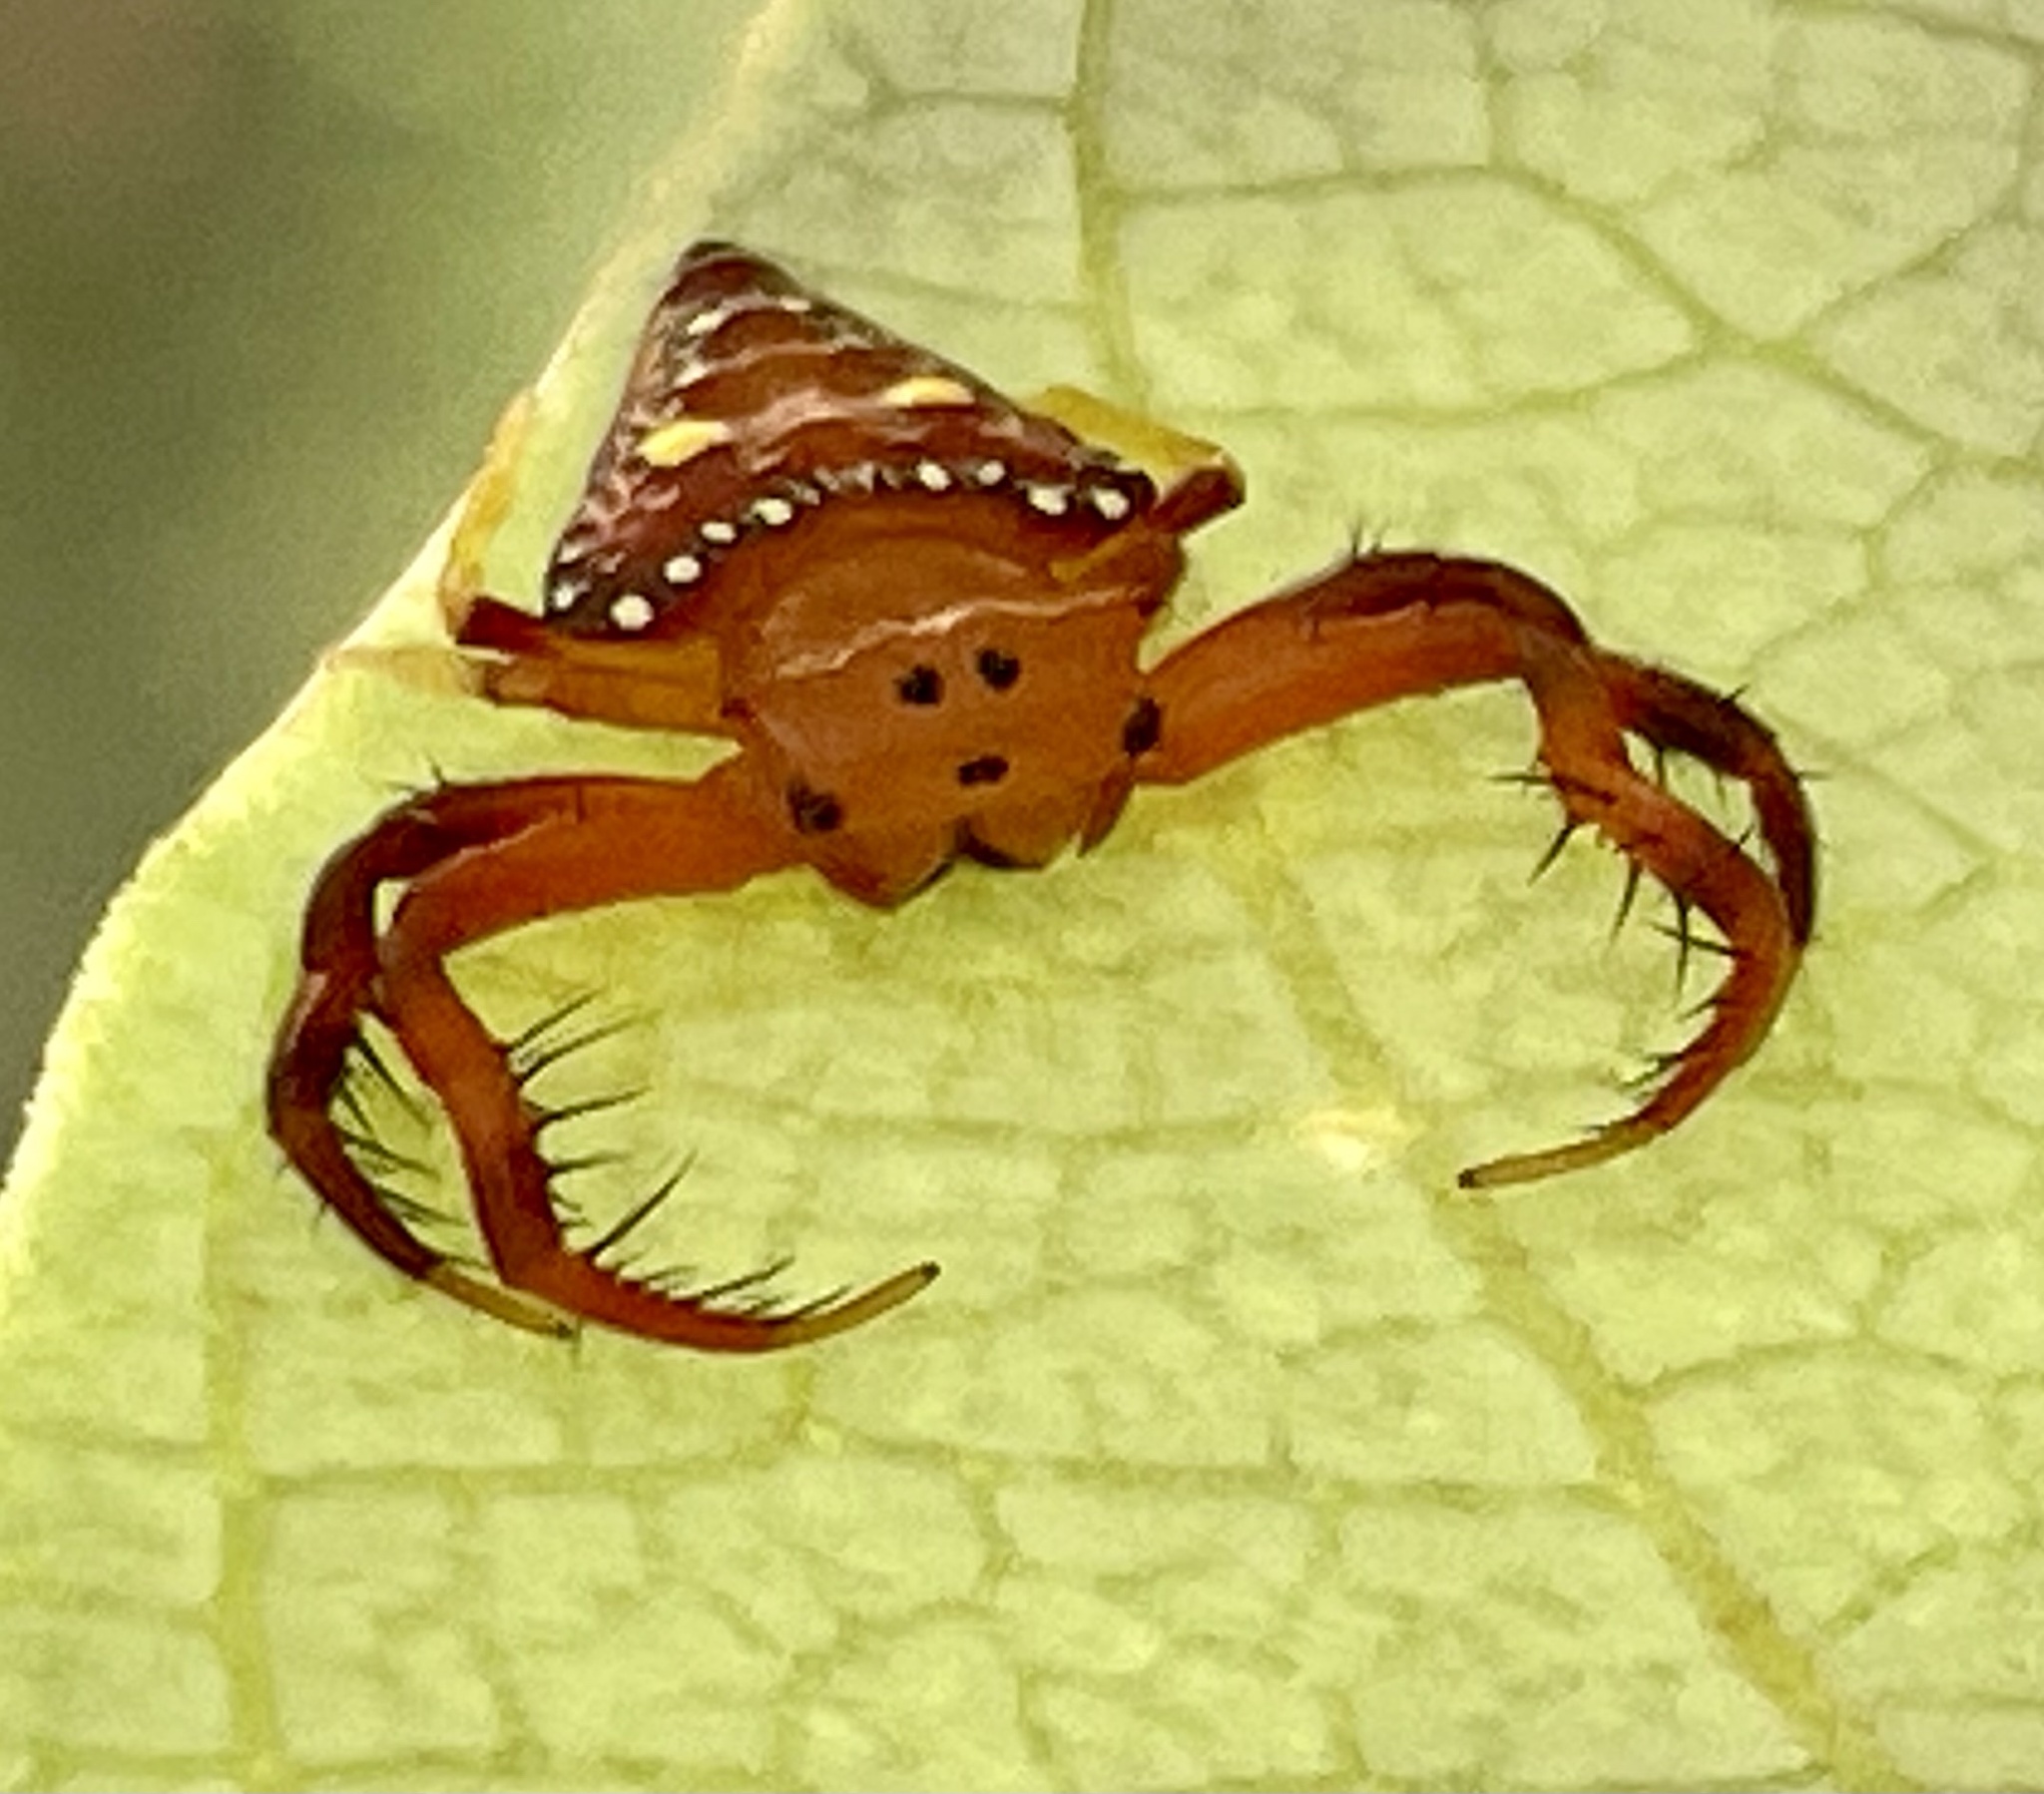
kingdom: Animalia
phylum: Arthropoda
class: Arachnida
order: Araneae
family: Arkyidae
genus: Arkys
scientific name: Arkys lancearius
